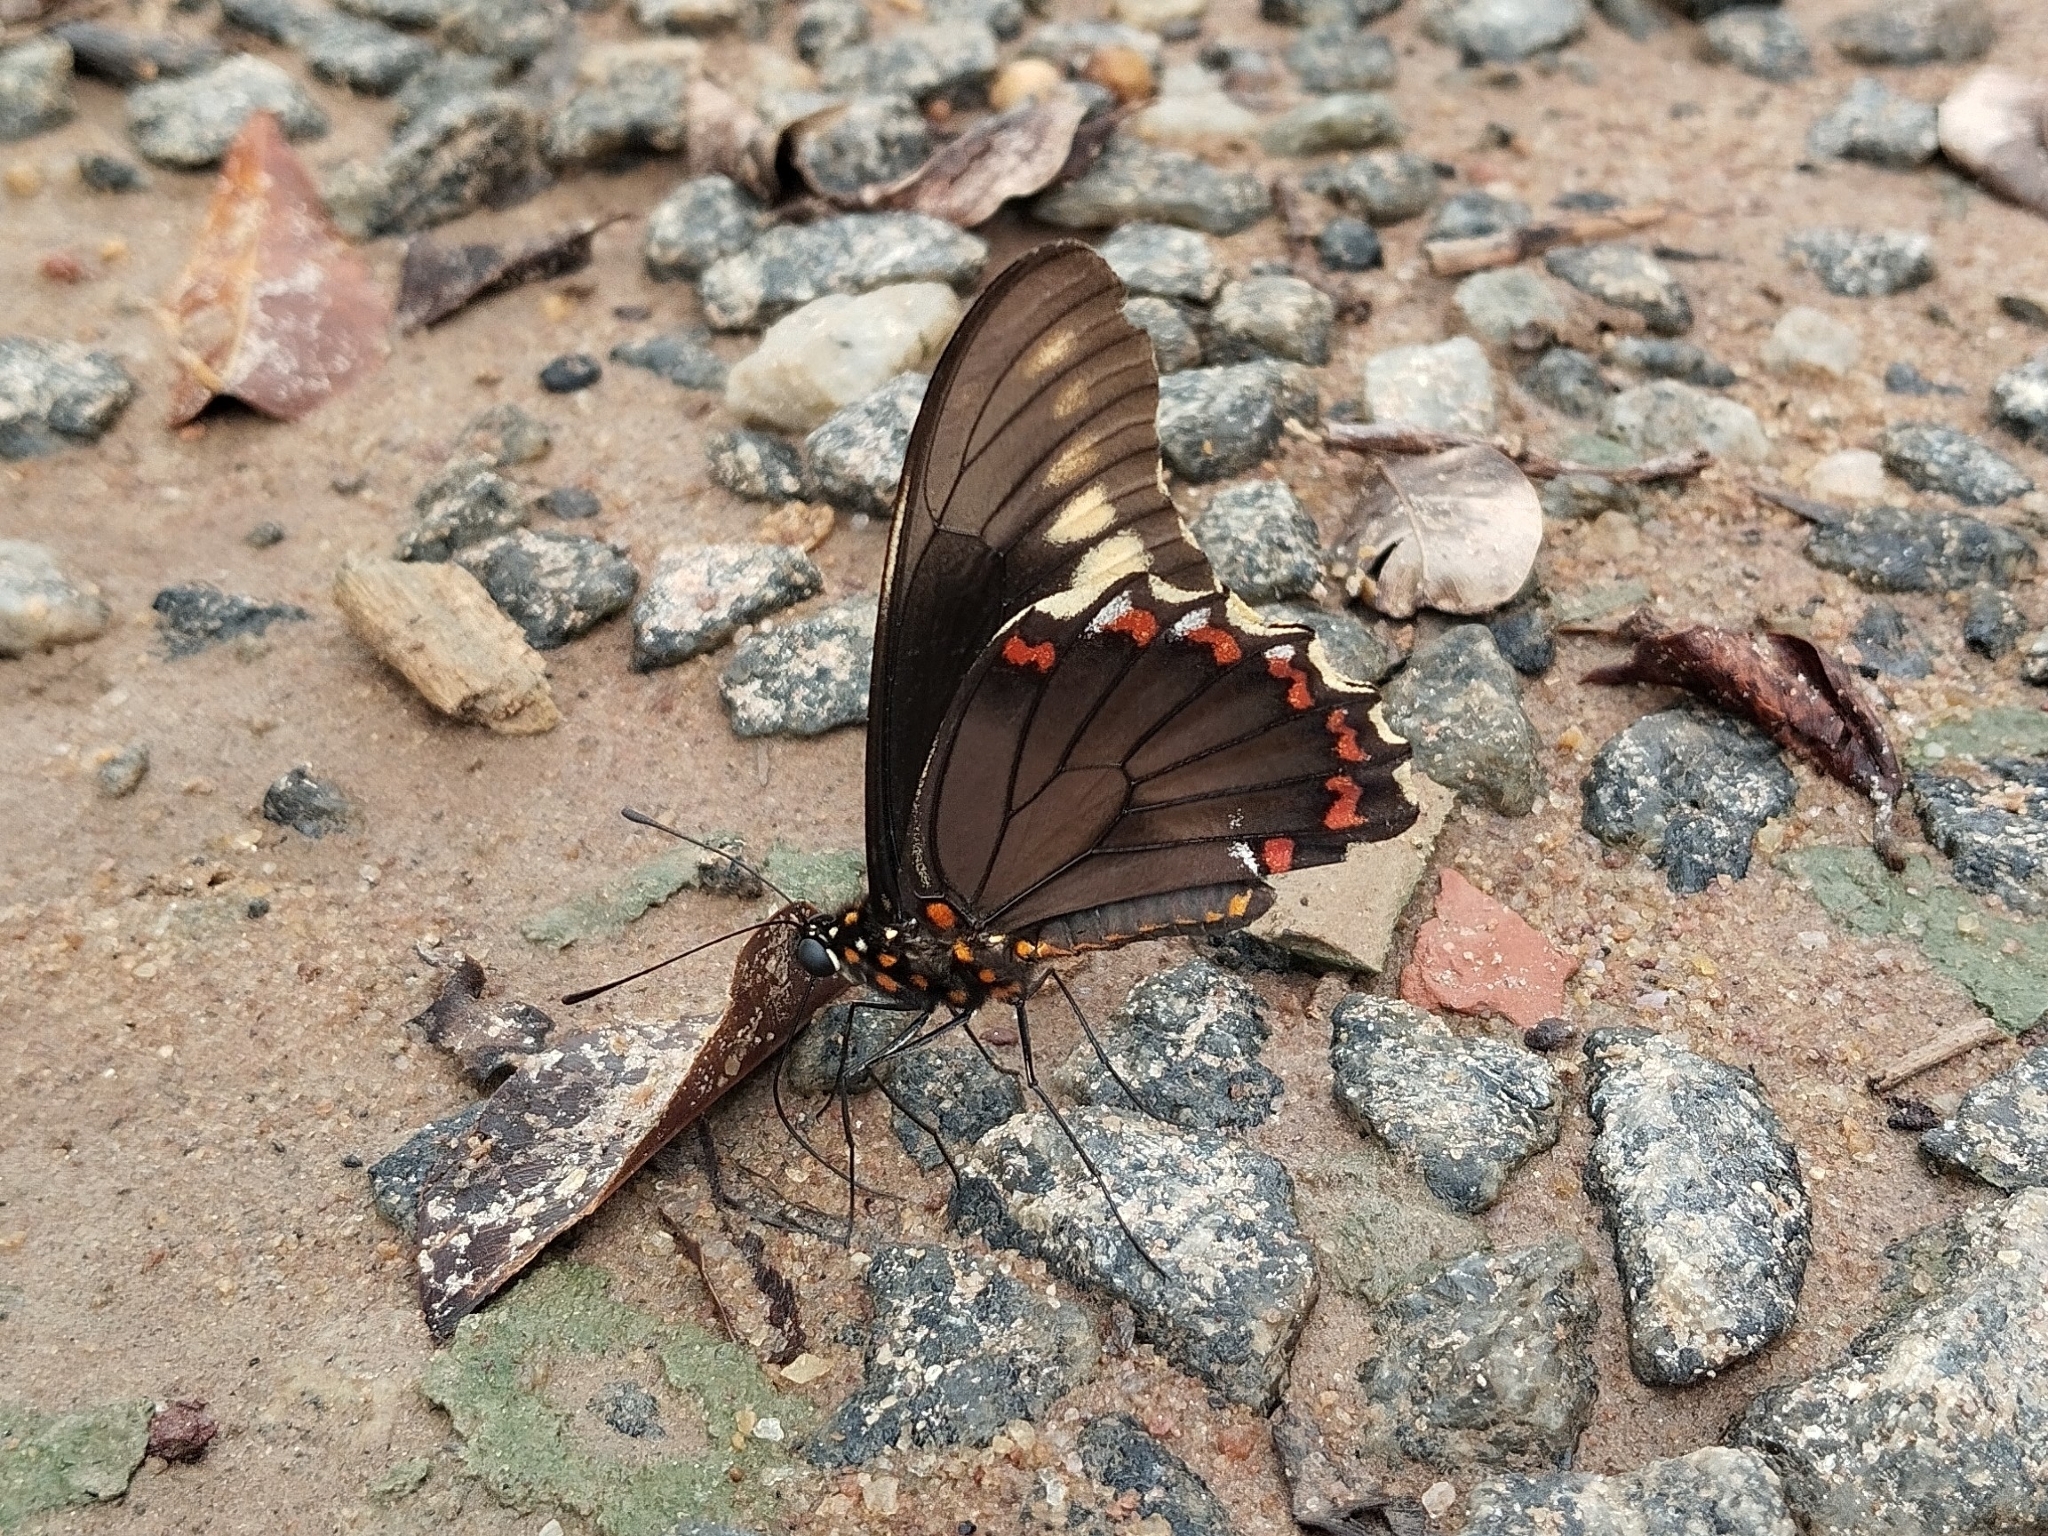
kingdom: Animalia
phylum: Arthropoda
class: Insecta
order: Lepidoptera
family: Papilionidae
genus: Battus
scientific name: Battus polydamas
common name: Polydamas swallowtail
